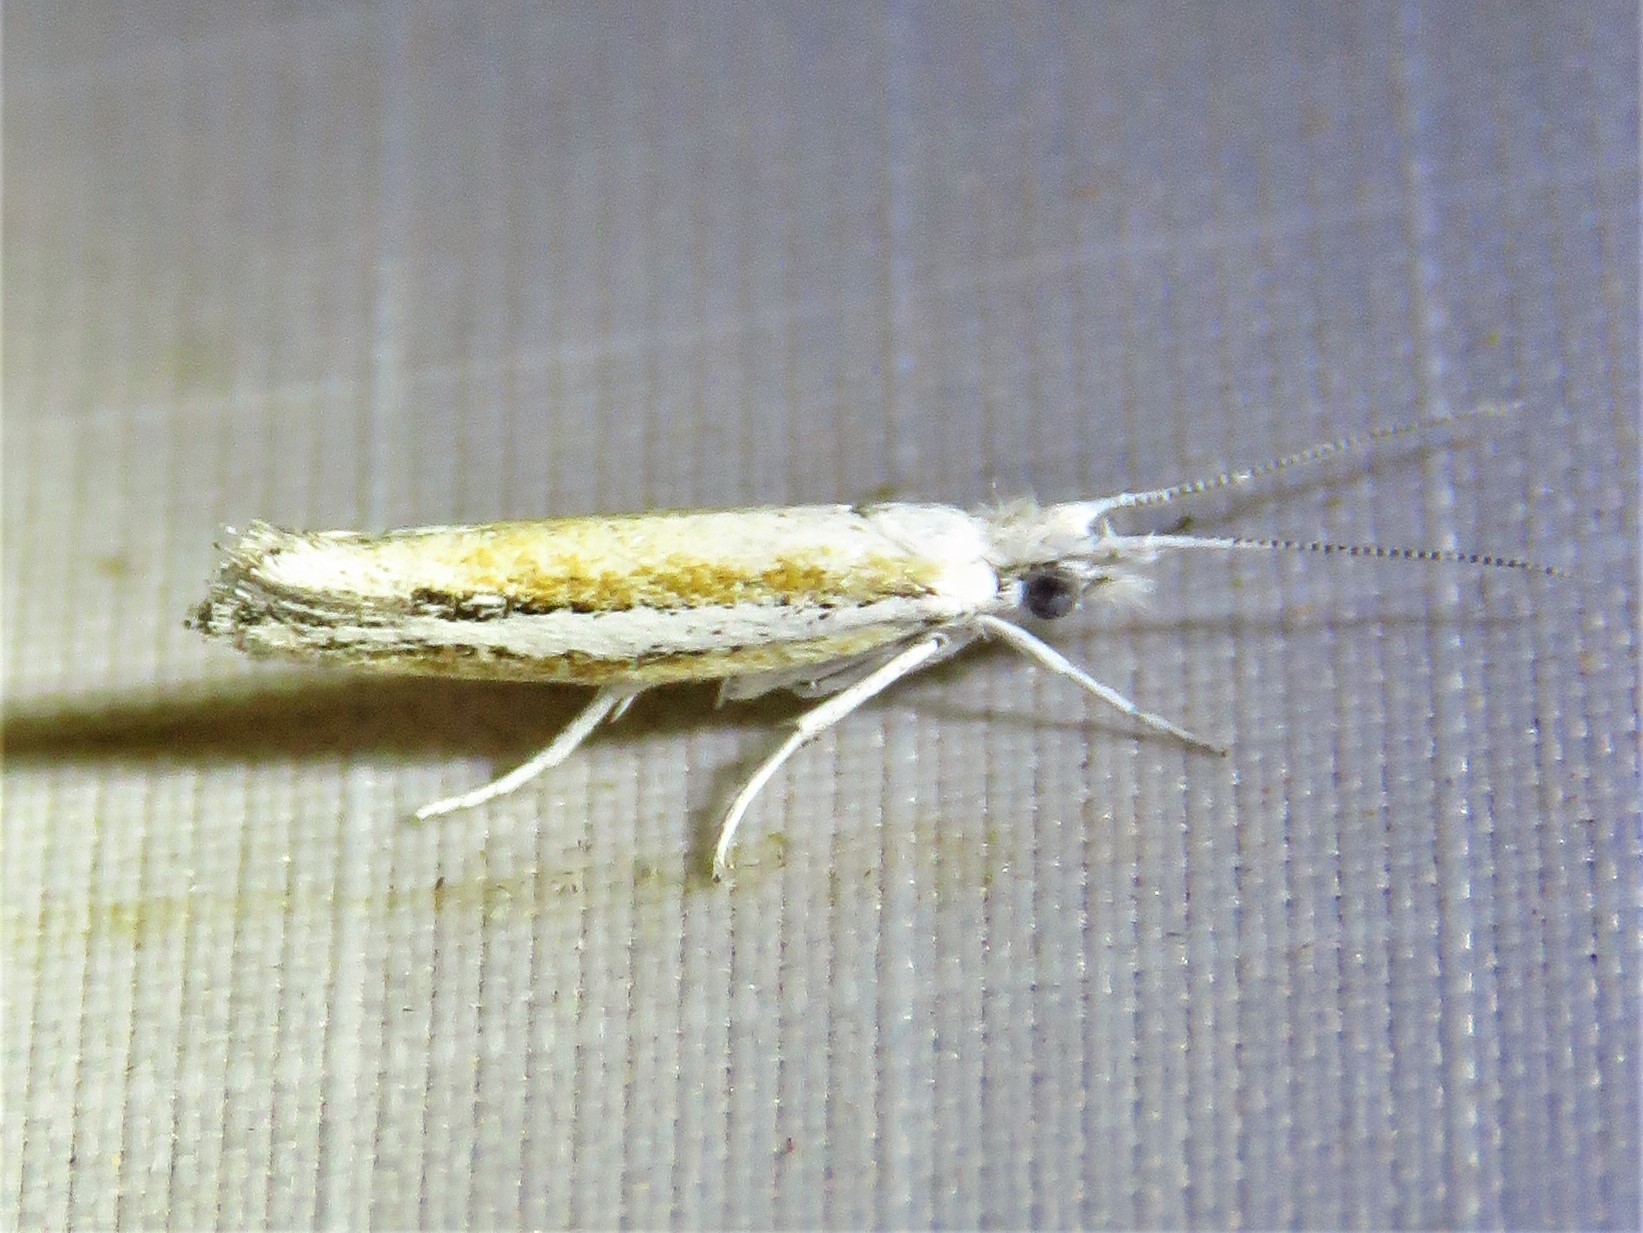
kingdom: Animalia
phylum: Arthropoda
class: Insecta
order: Lepidoptera
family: Ypsolophidae
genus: Ypsolopha
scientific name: Ypsolopha gerdanella
